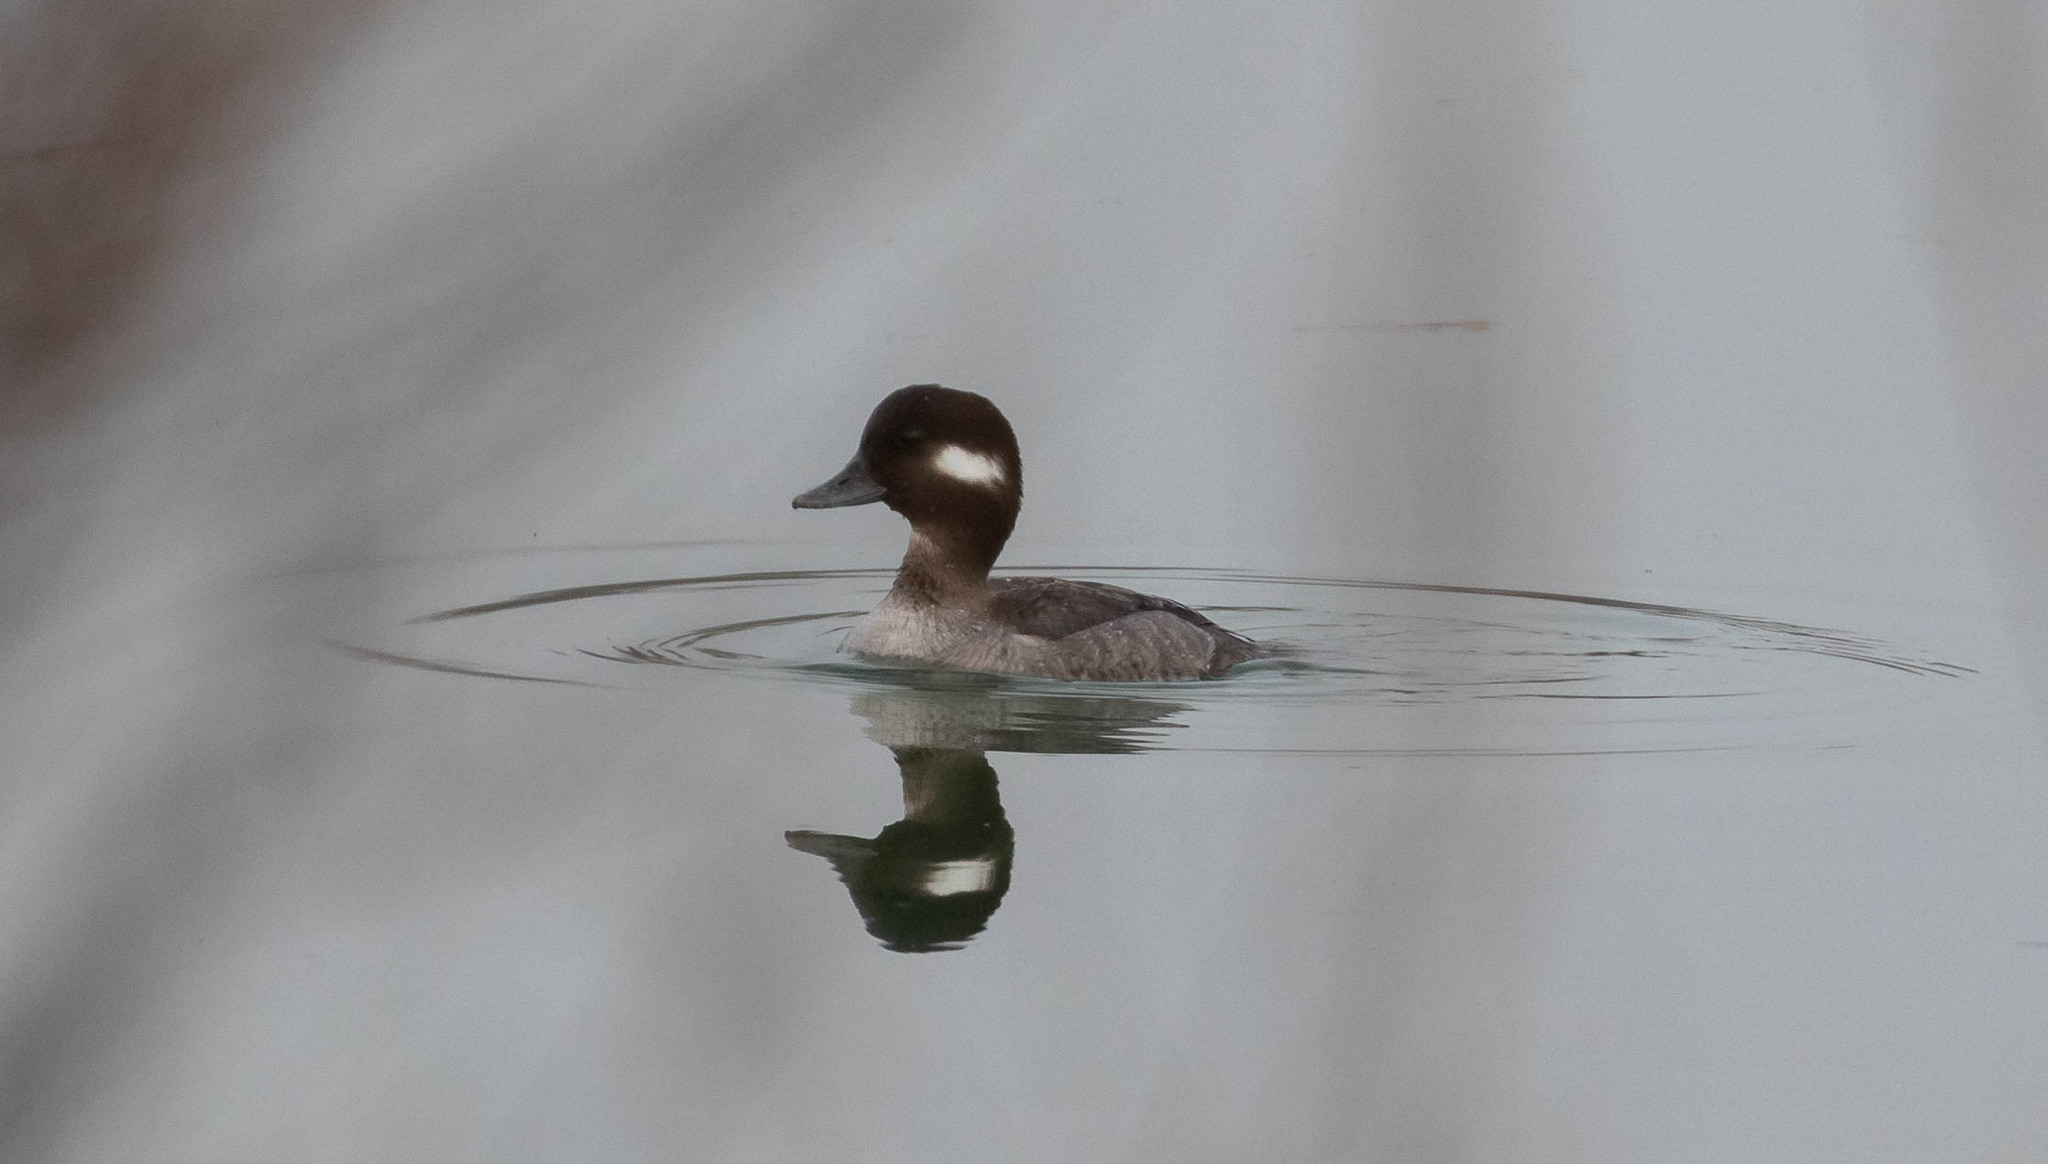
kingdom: Animalia
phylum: Chordata
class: Aves
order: Anseriformes
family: Anatidae
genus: Bucephala
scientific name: Bucephala albeola
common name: Bufflehead
